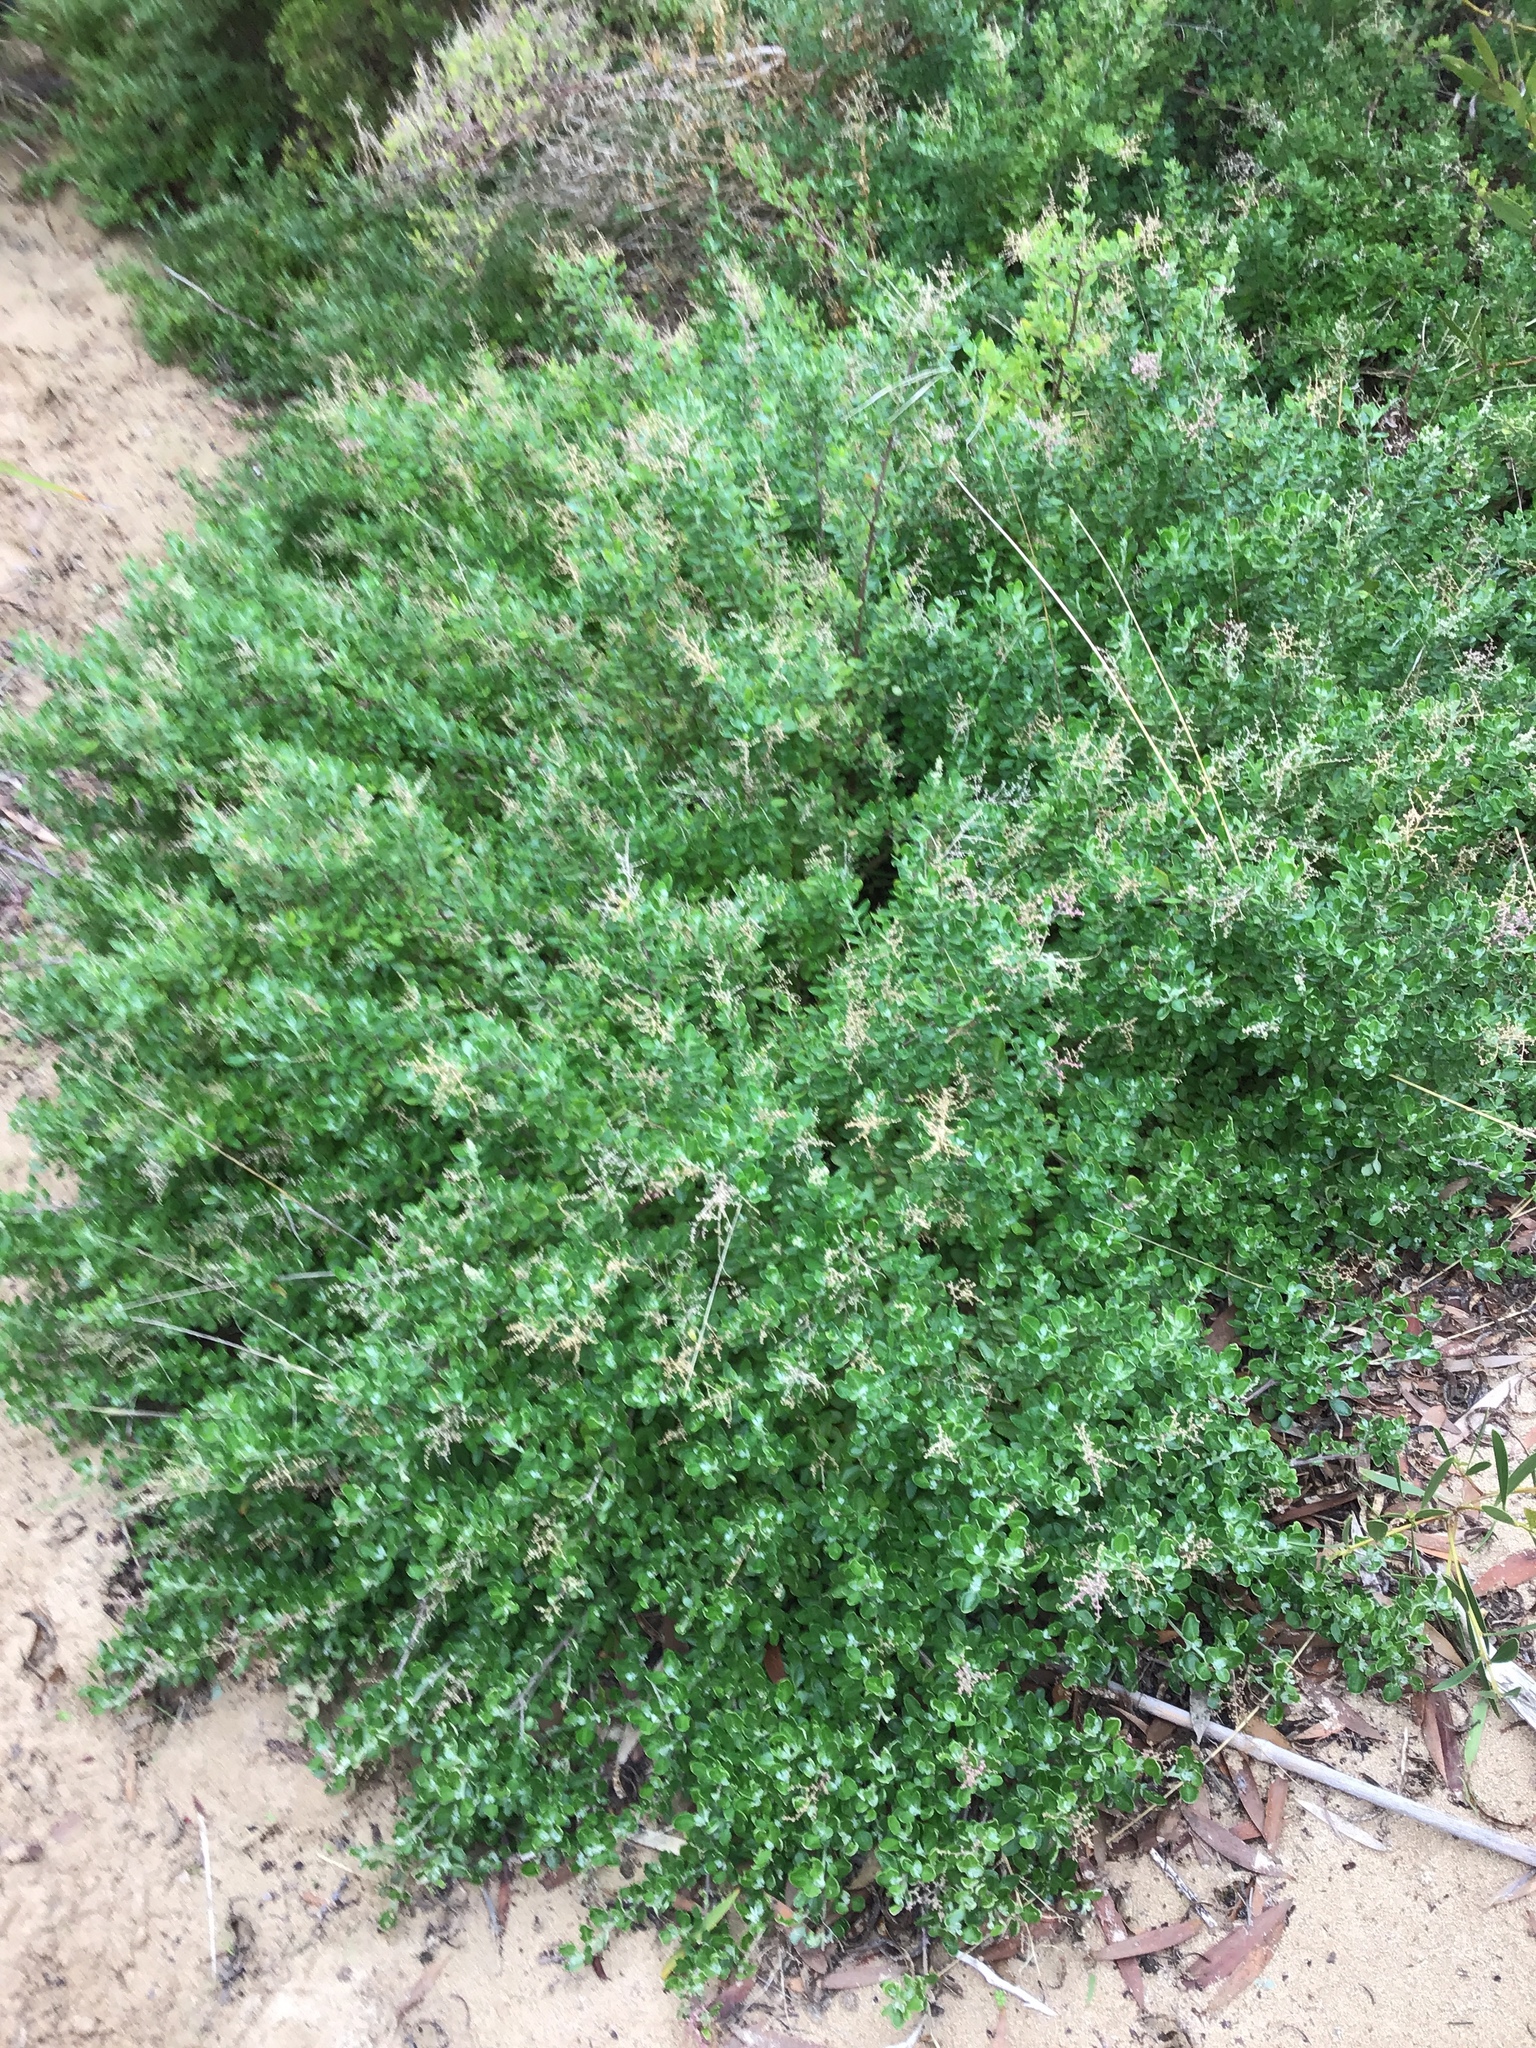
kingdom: Plantae
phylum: Tracheophyta
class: Magnoliopsida
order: Caryophyllales
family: Amaranthaceae
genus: Chenopodium
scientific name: Chenopodium candolleanum
